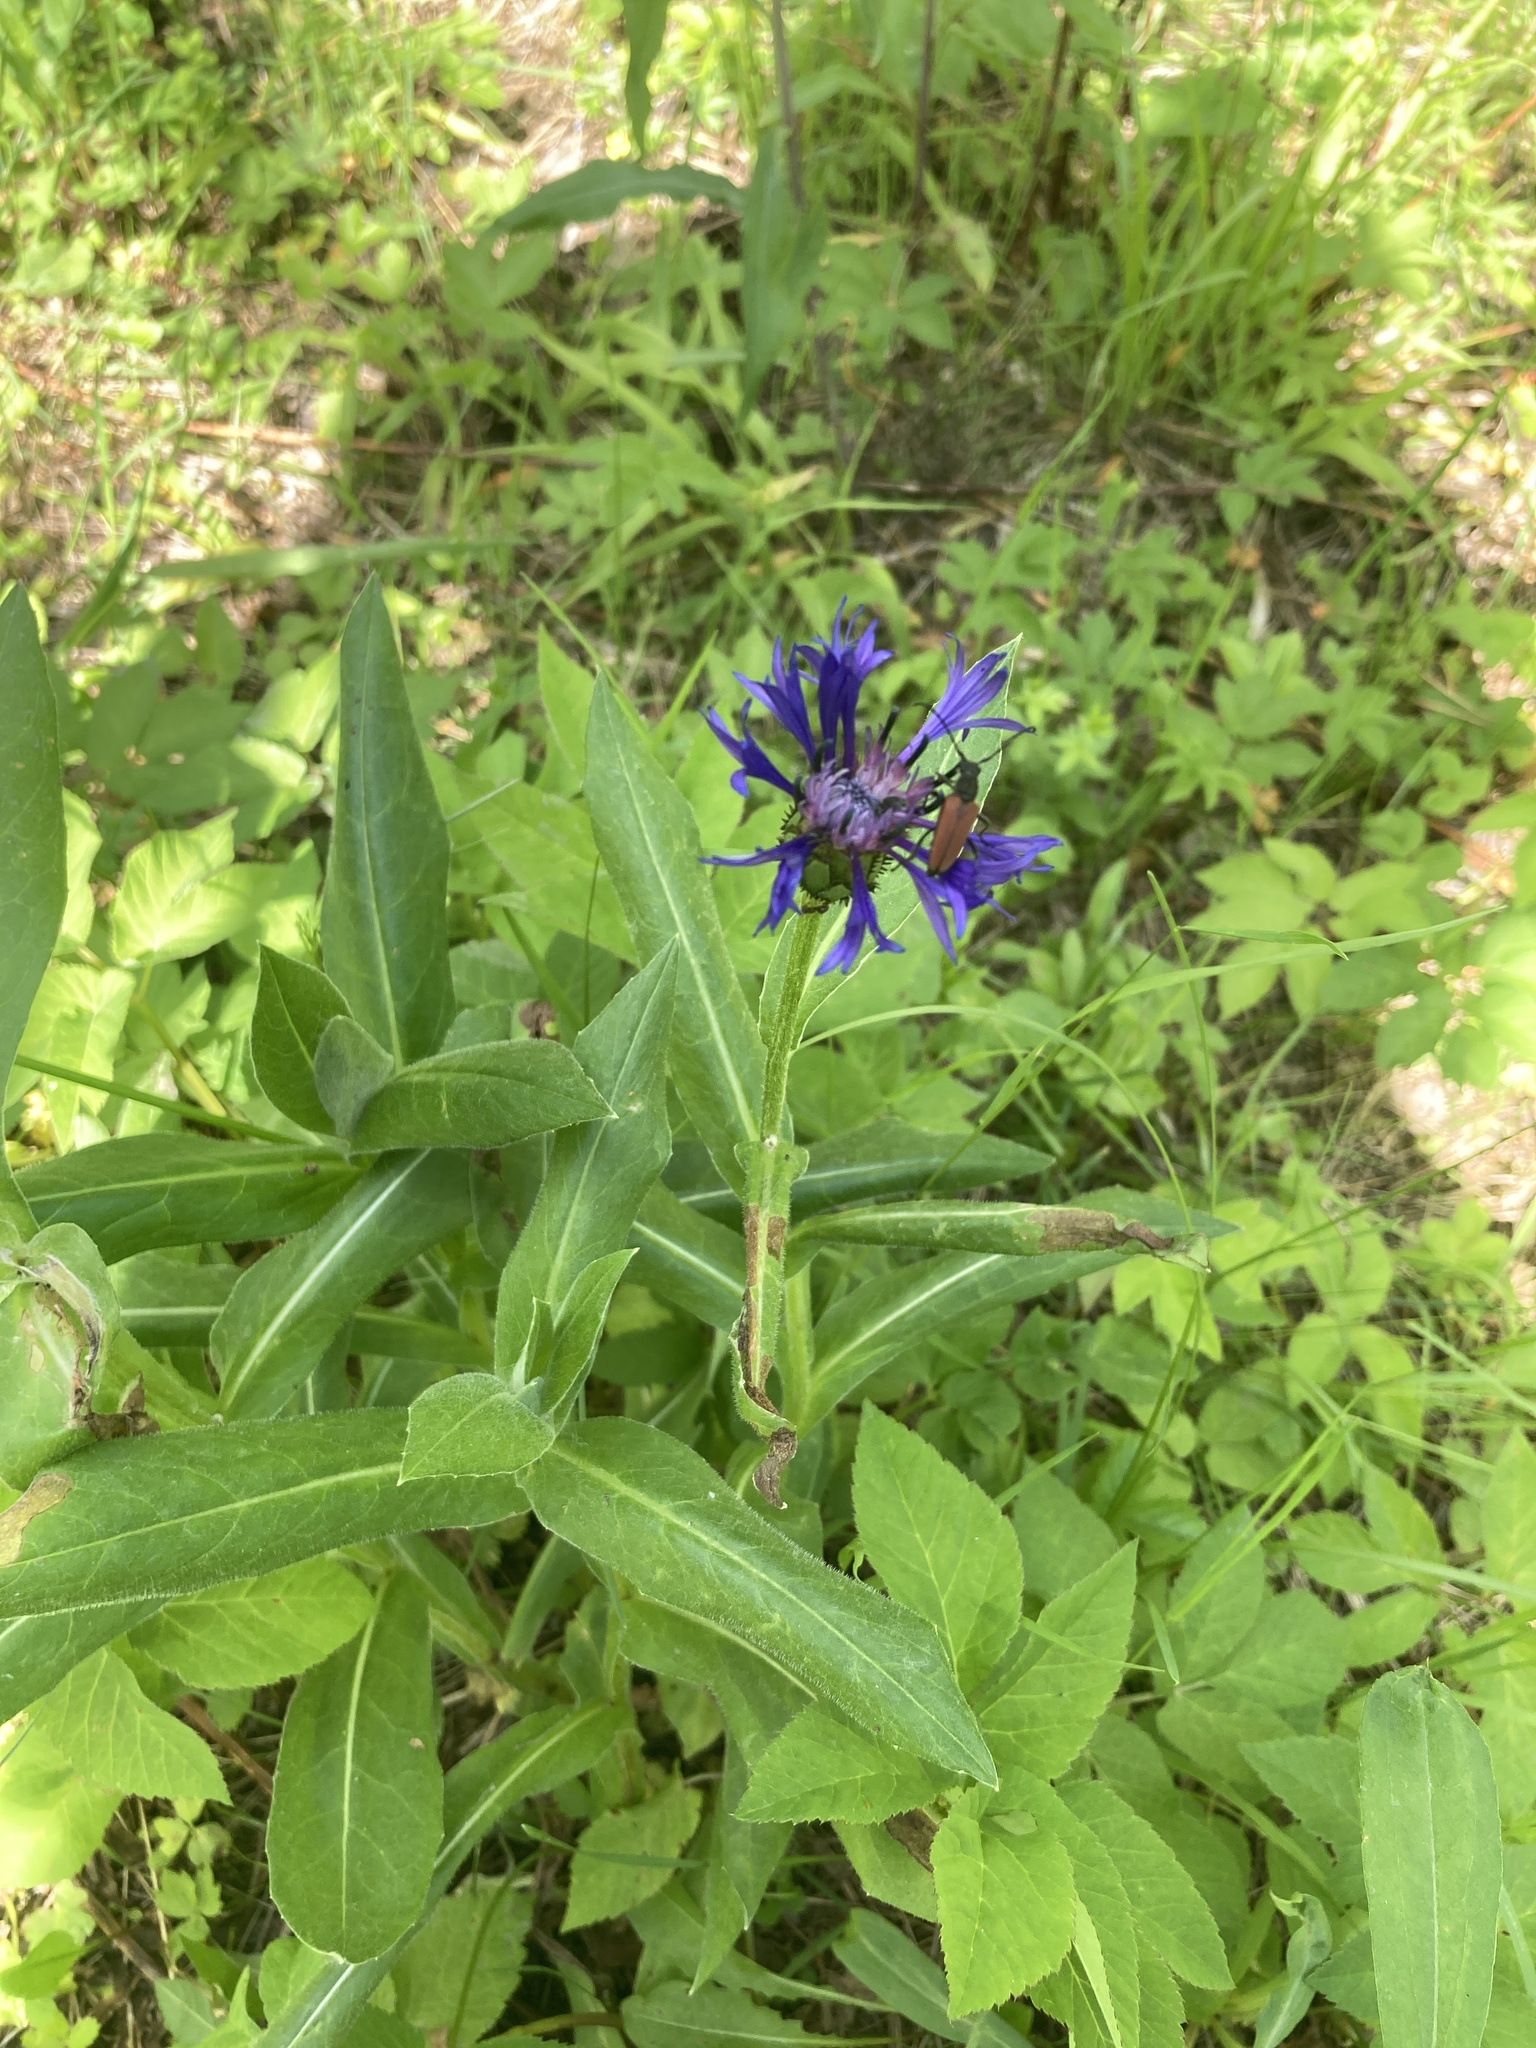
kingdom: Plantae
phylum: Tracheophyta
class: Magnoliopsida
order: Asterales
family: Asteraceae
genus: Centaurea
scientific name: Centaurea montana
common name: Perennial cornflower
